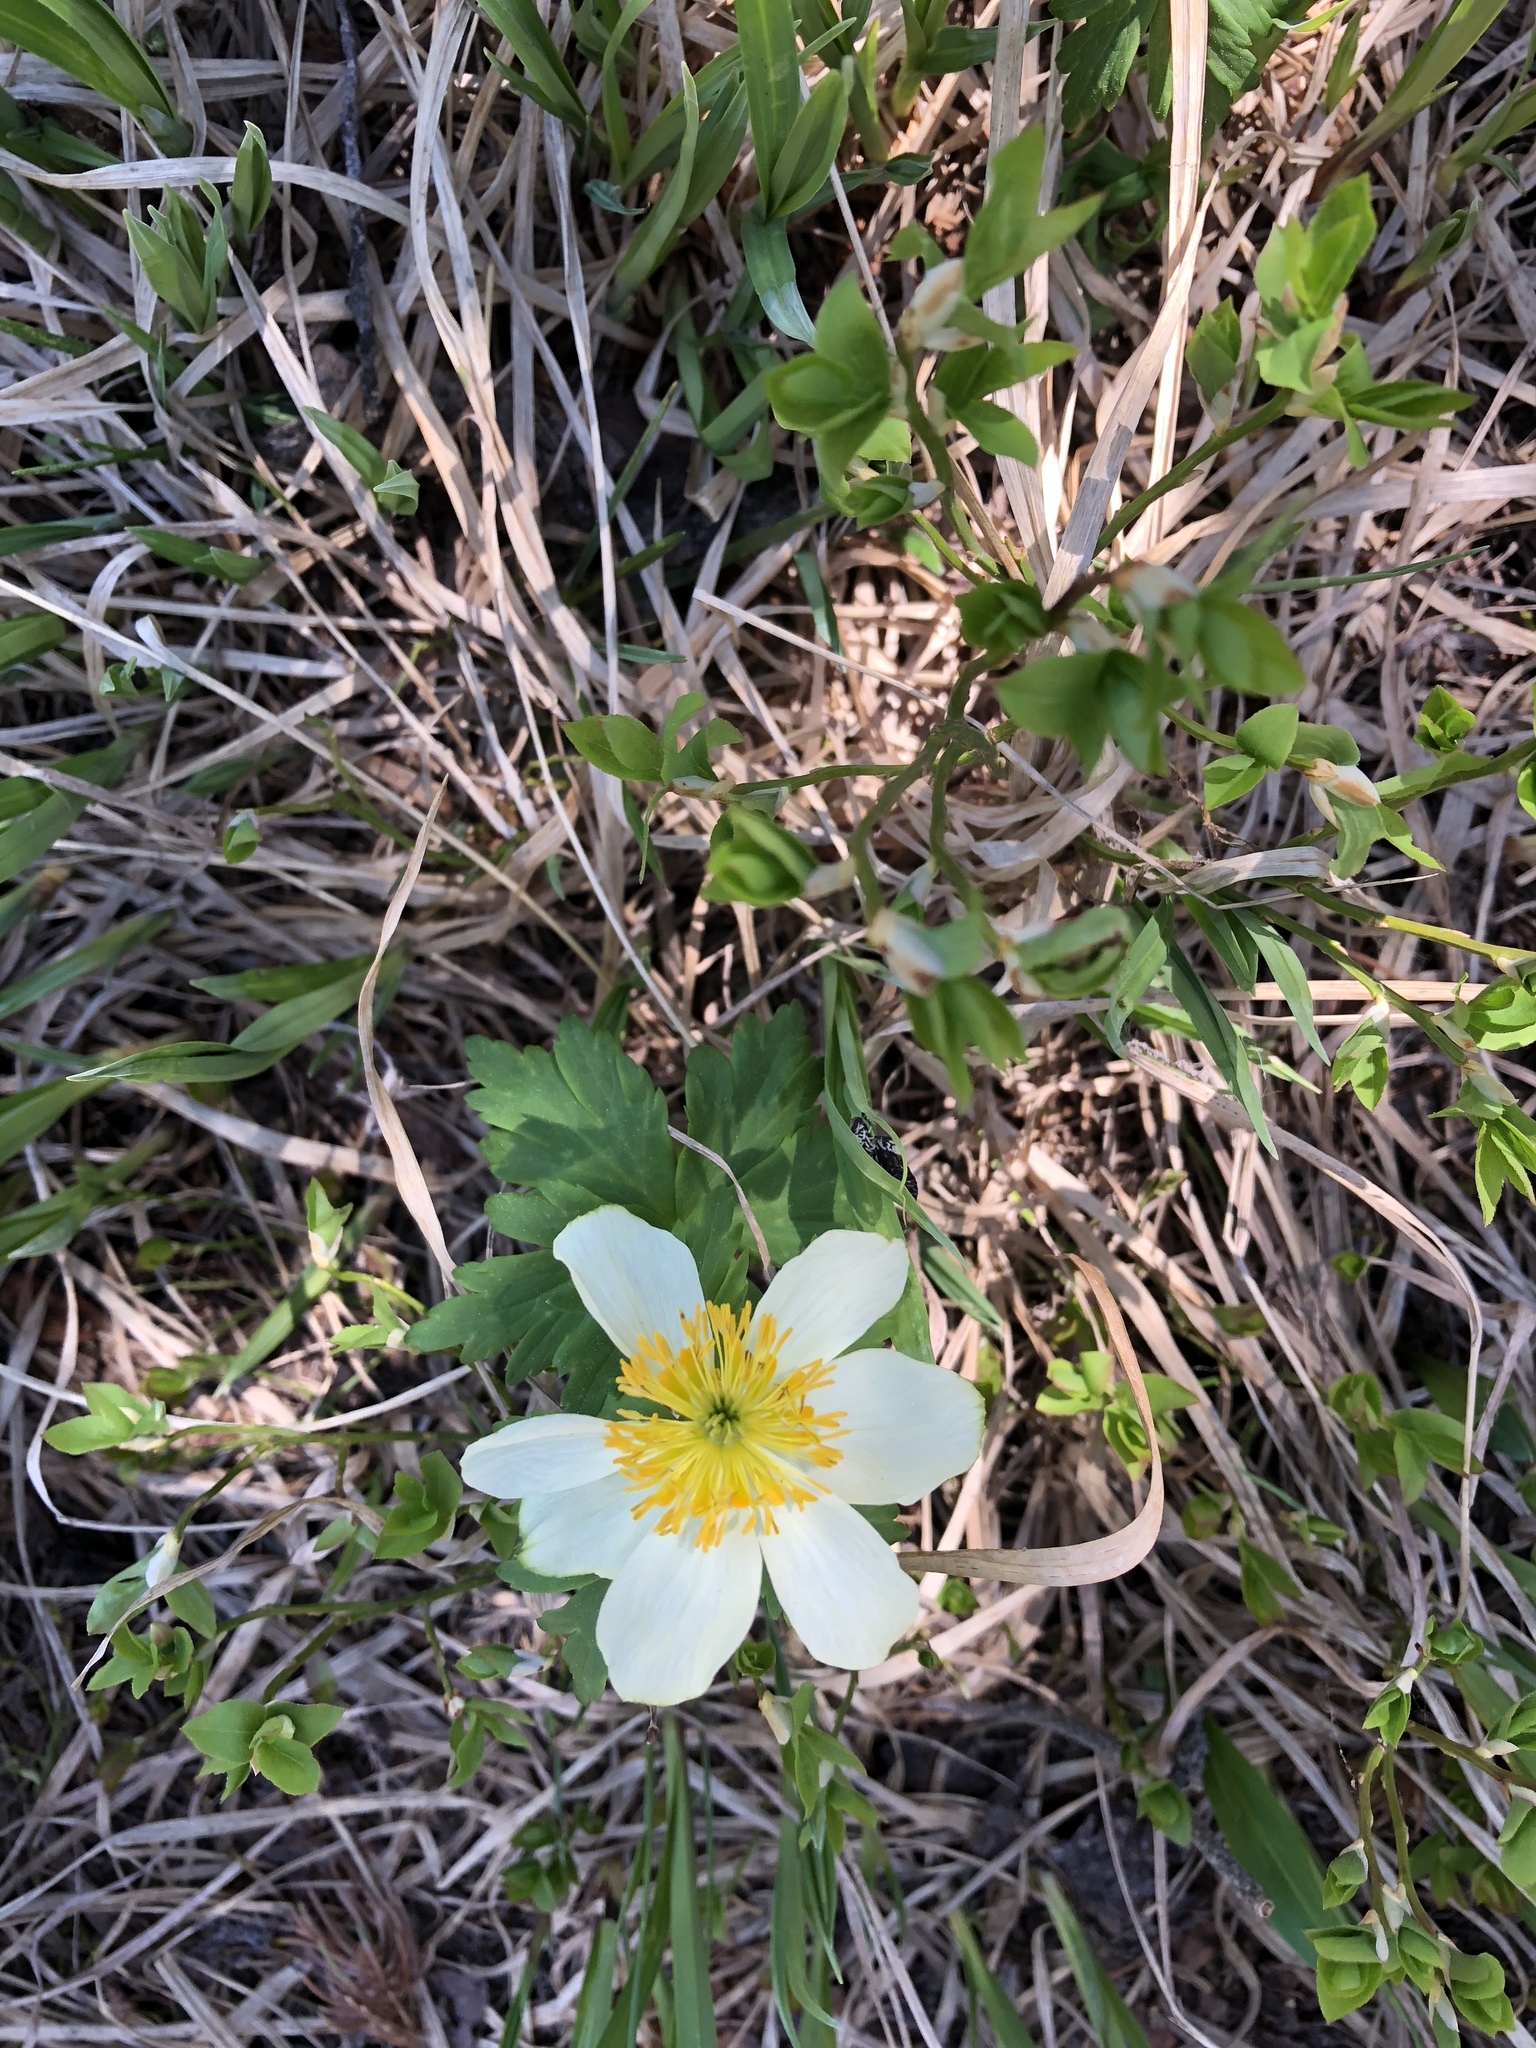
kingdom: Plantae
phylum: Tracheophyta
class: Magnoliopsida
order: Ranunculales
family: Ranunculaceae
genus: Trollius
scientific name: Trollius laxus
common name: American globeflower
